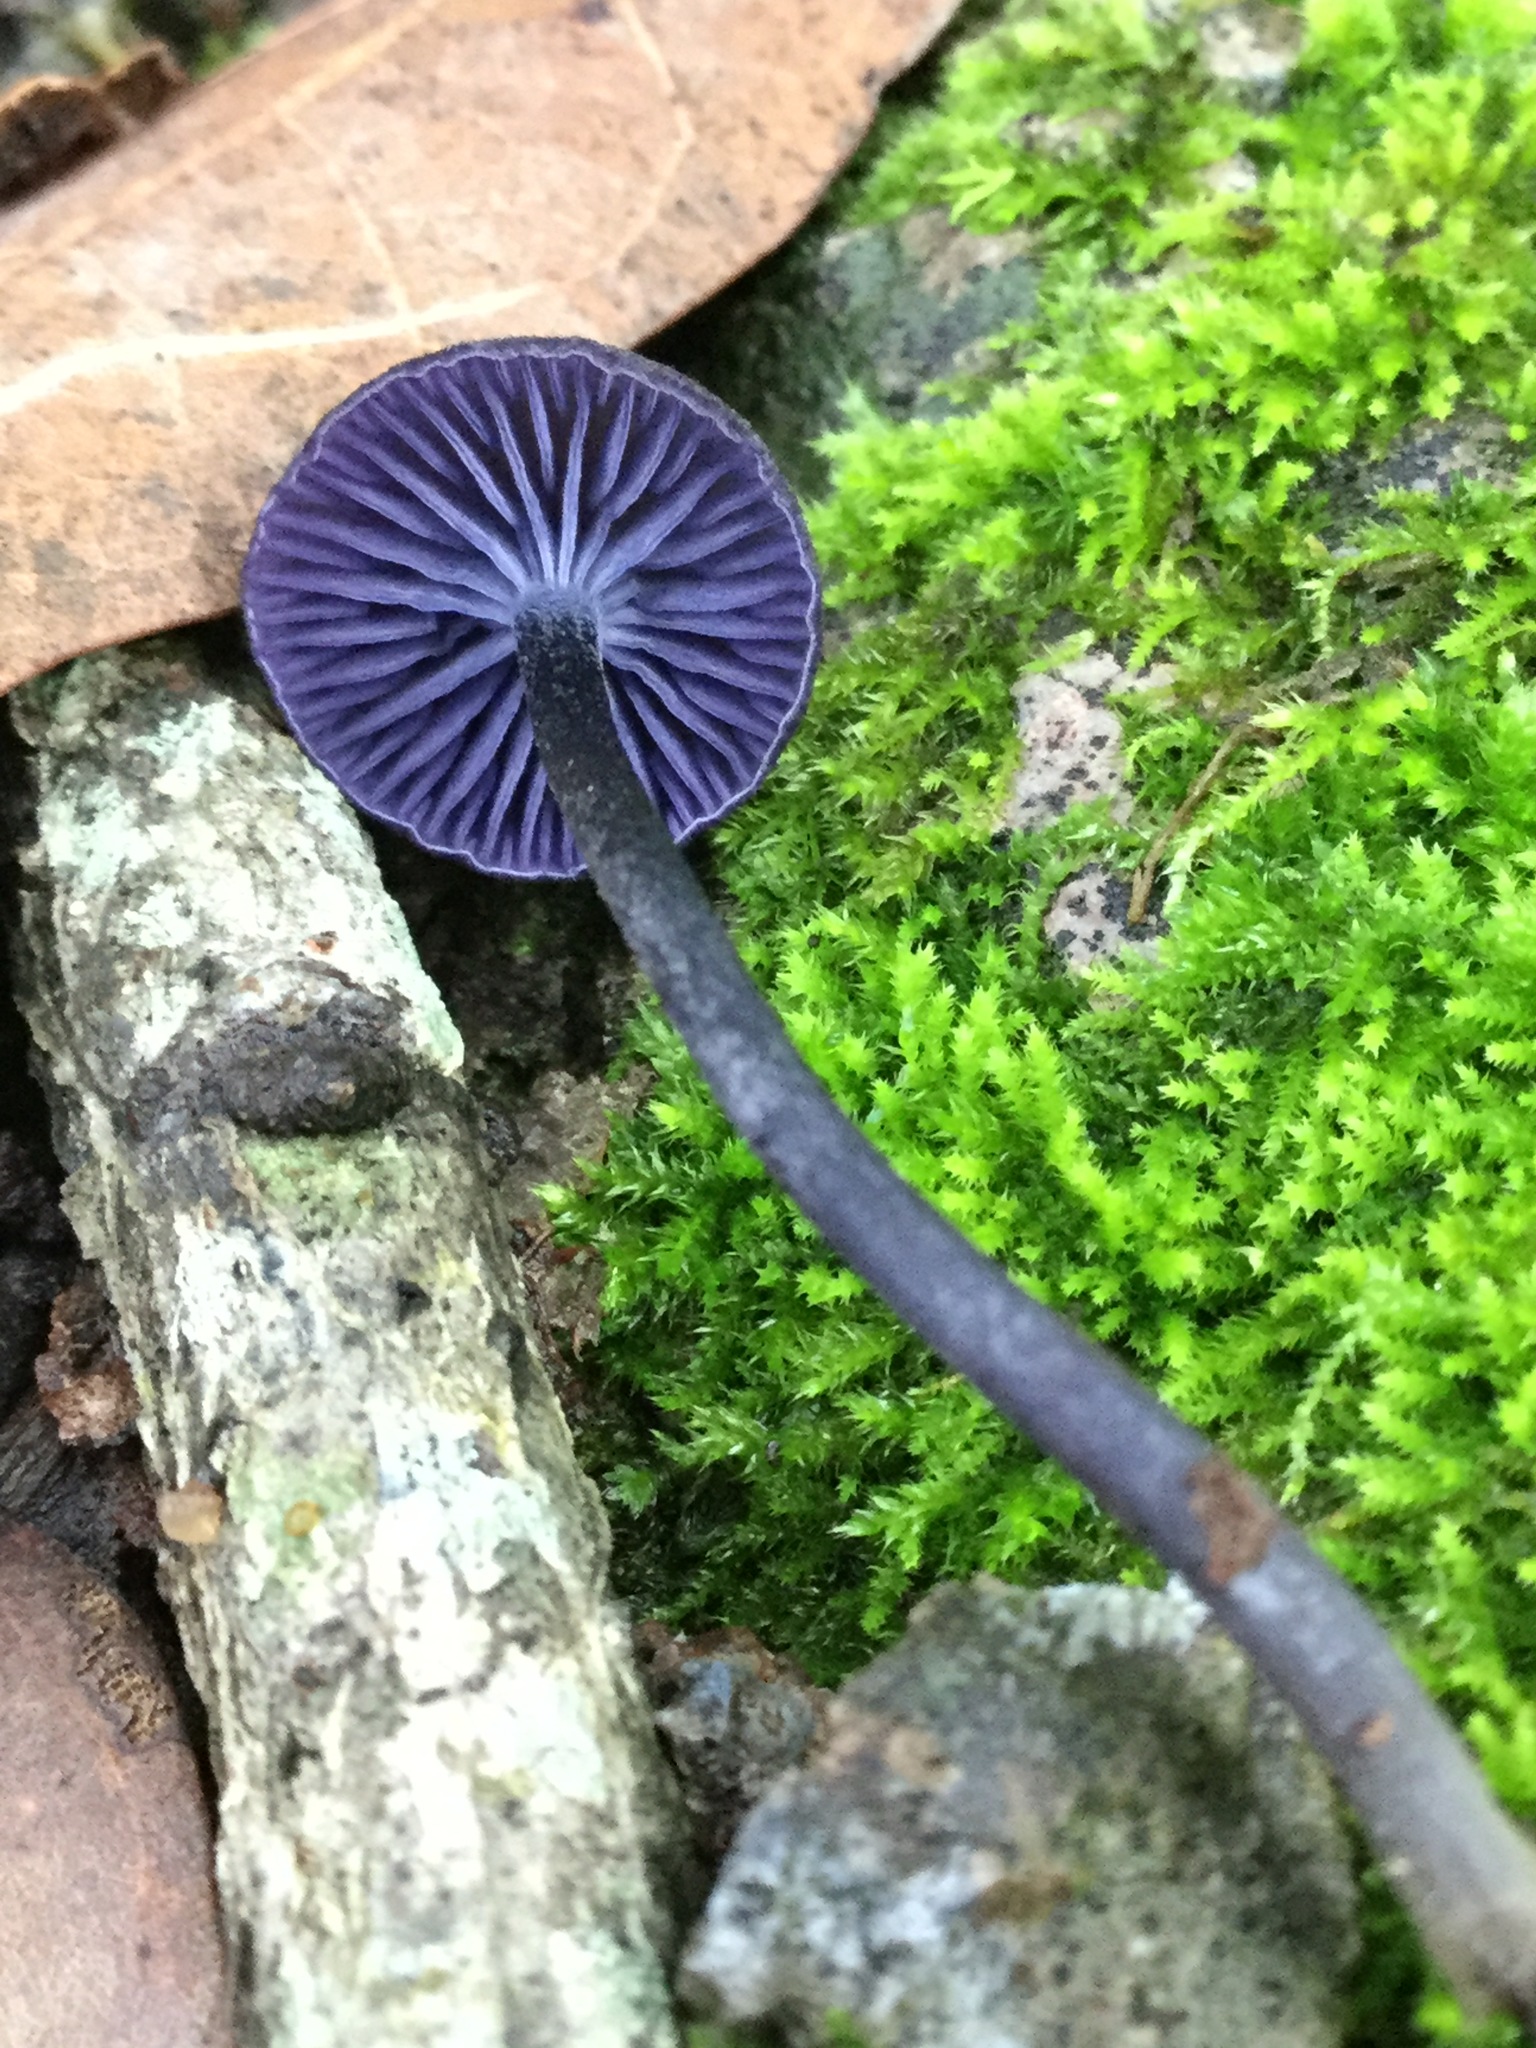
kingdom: Fungi
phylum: Basidiomycota
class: Agaricomycetes
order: Agaricales
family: Entolomataceae
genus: Entoloma
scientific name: Entoloma occidentale
